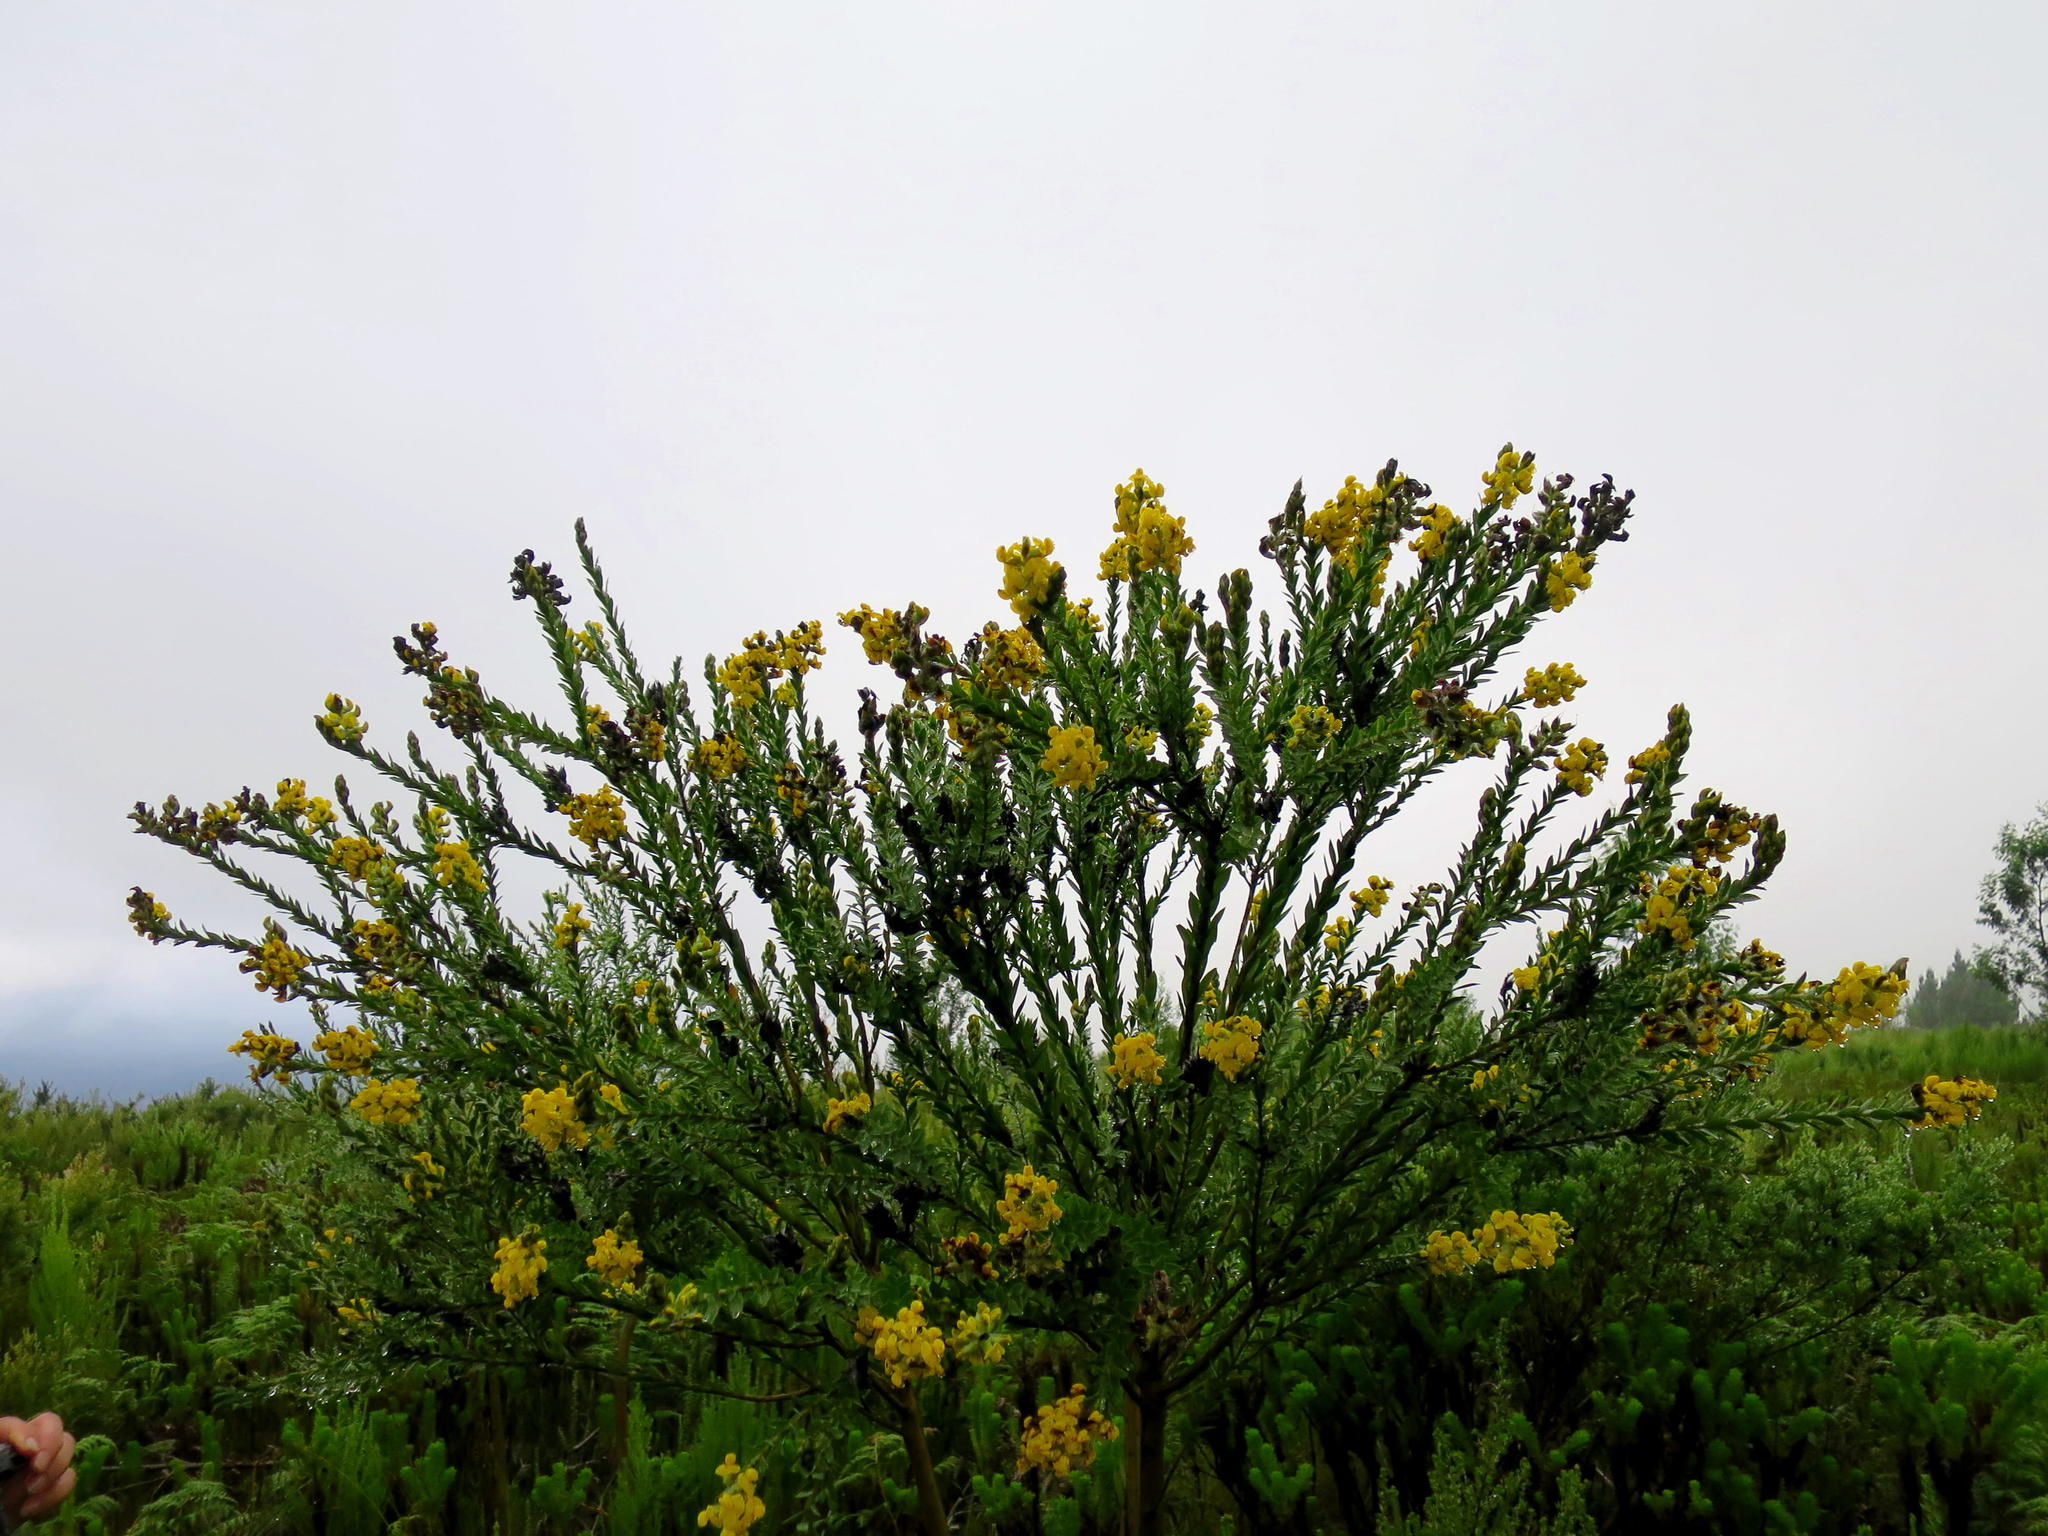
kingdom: Plantae
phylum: Tracheophyta
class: Magnoliopsida
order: Fabales
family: Fabaceae
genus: Liparia
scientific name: Liparia hirsuta
